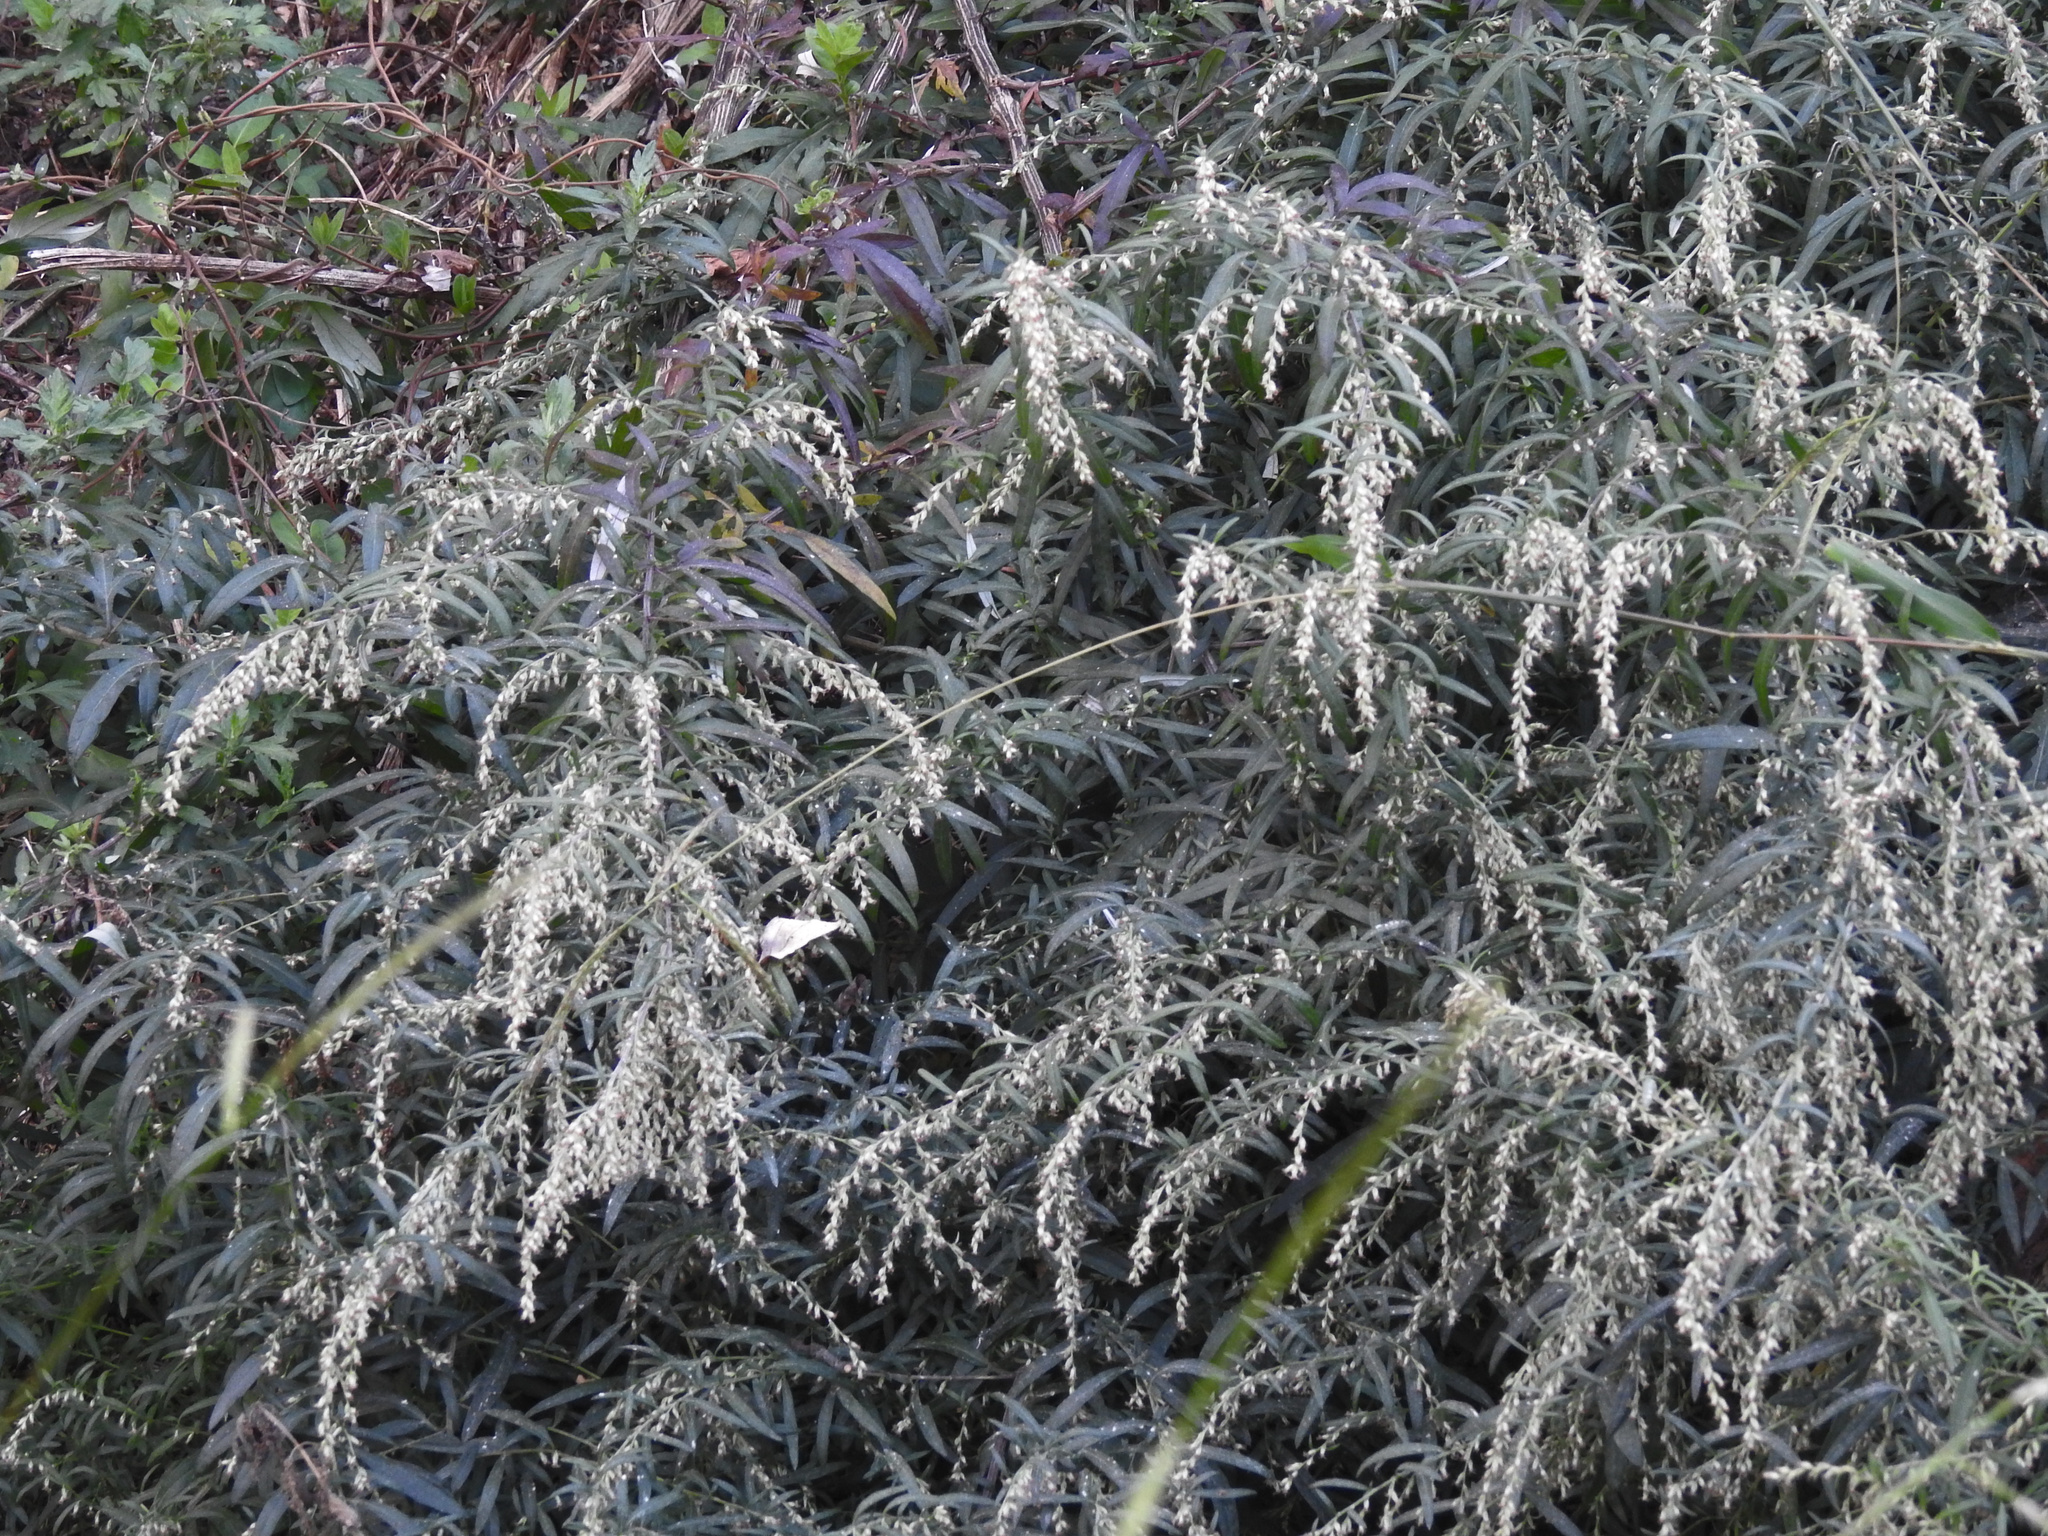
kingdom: Plantae
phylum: Tracheophyta
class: Magnoliopsida
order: Asterales
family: Asteraceae
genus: Artemisia
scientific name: Artemisia vulgaris
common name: Mugwort
